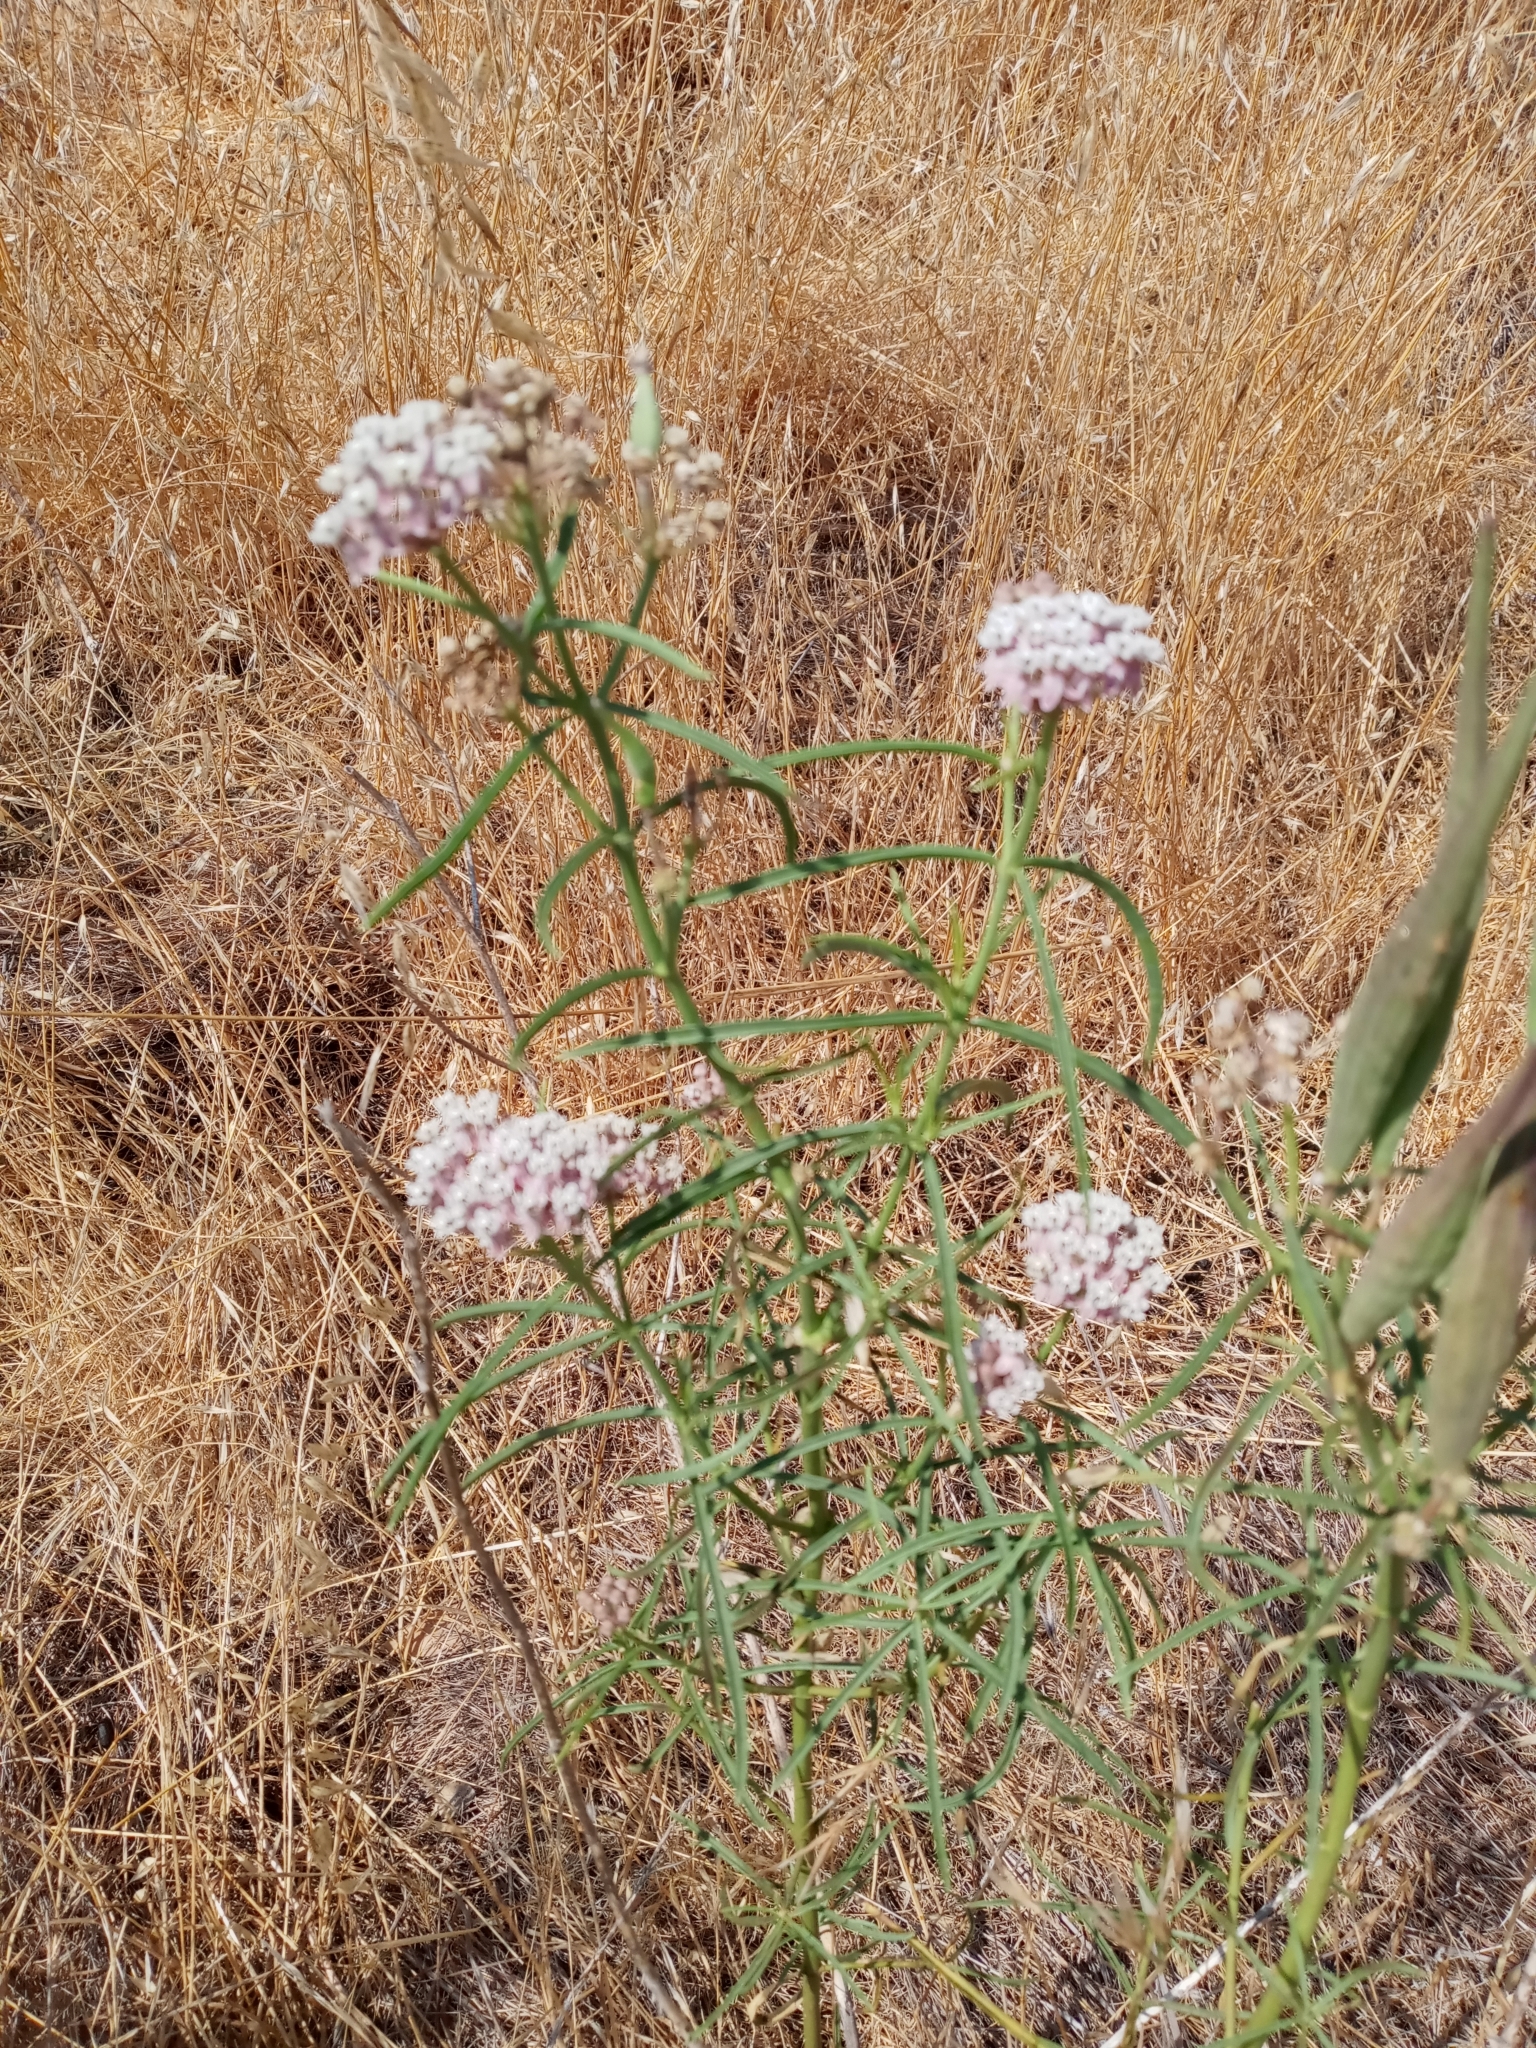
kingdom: Plantae
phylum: Tracheophyta
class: Magnoliopsida
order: Gentianales
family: Apocynaceae
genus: Asclepias
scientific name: Asclepias fascicularis
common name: Mexican milkweed
